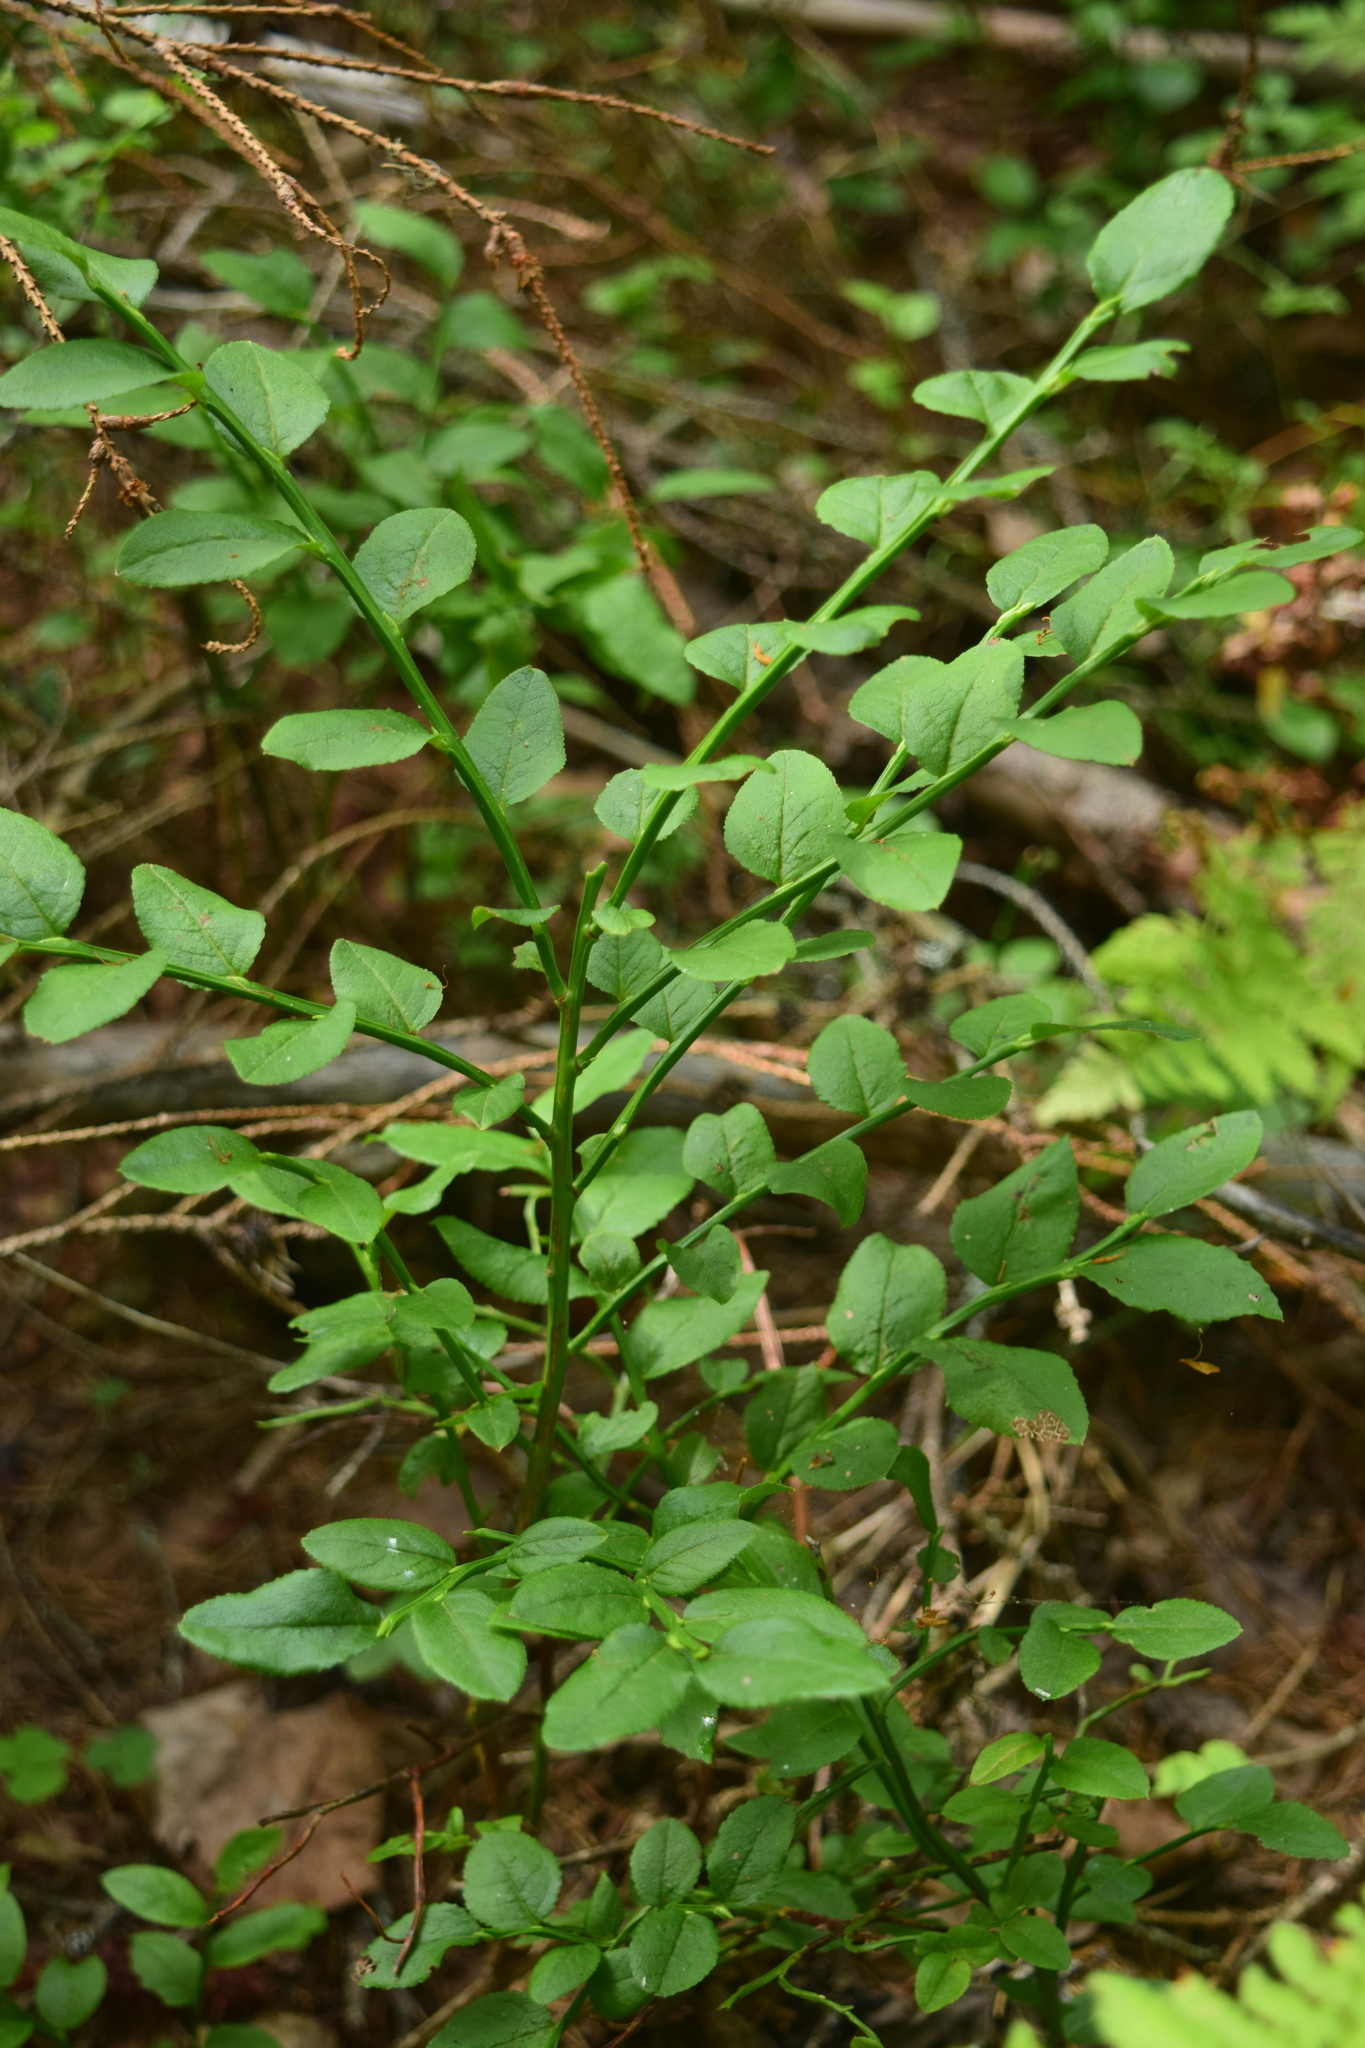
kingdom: Plantae
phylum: Tracheophyta
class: Magnoliopsida
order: Ericales
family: Ericaceae
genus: Vaccinium
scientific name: Vaccinium myrtillus
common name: Bilberry
